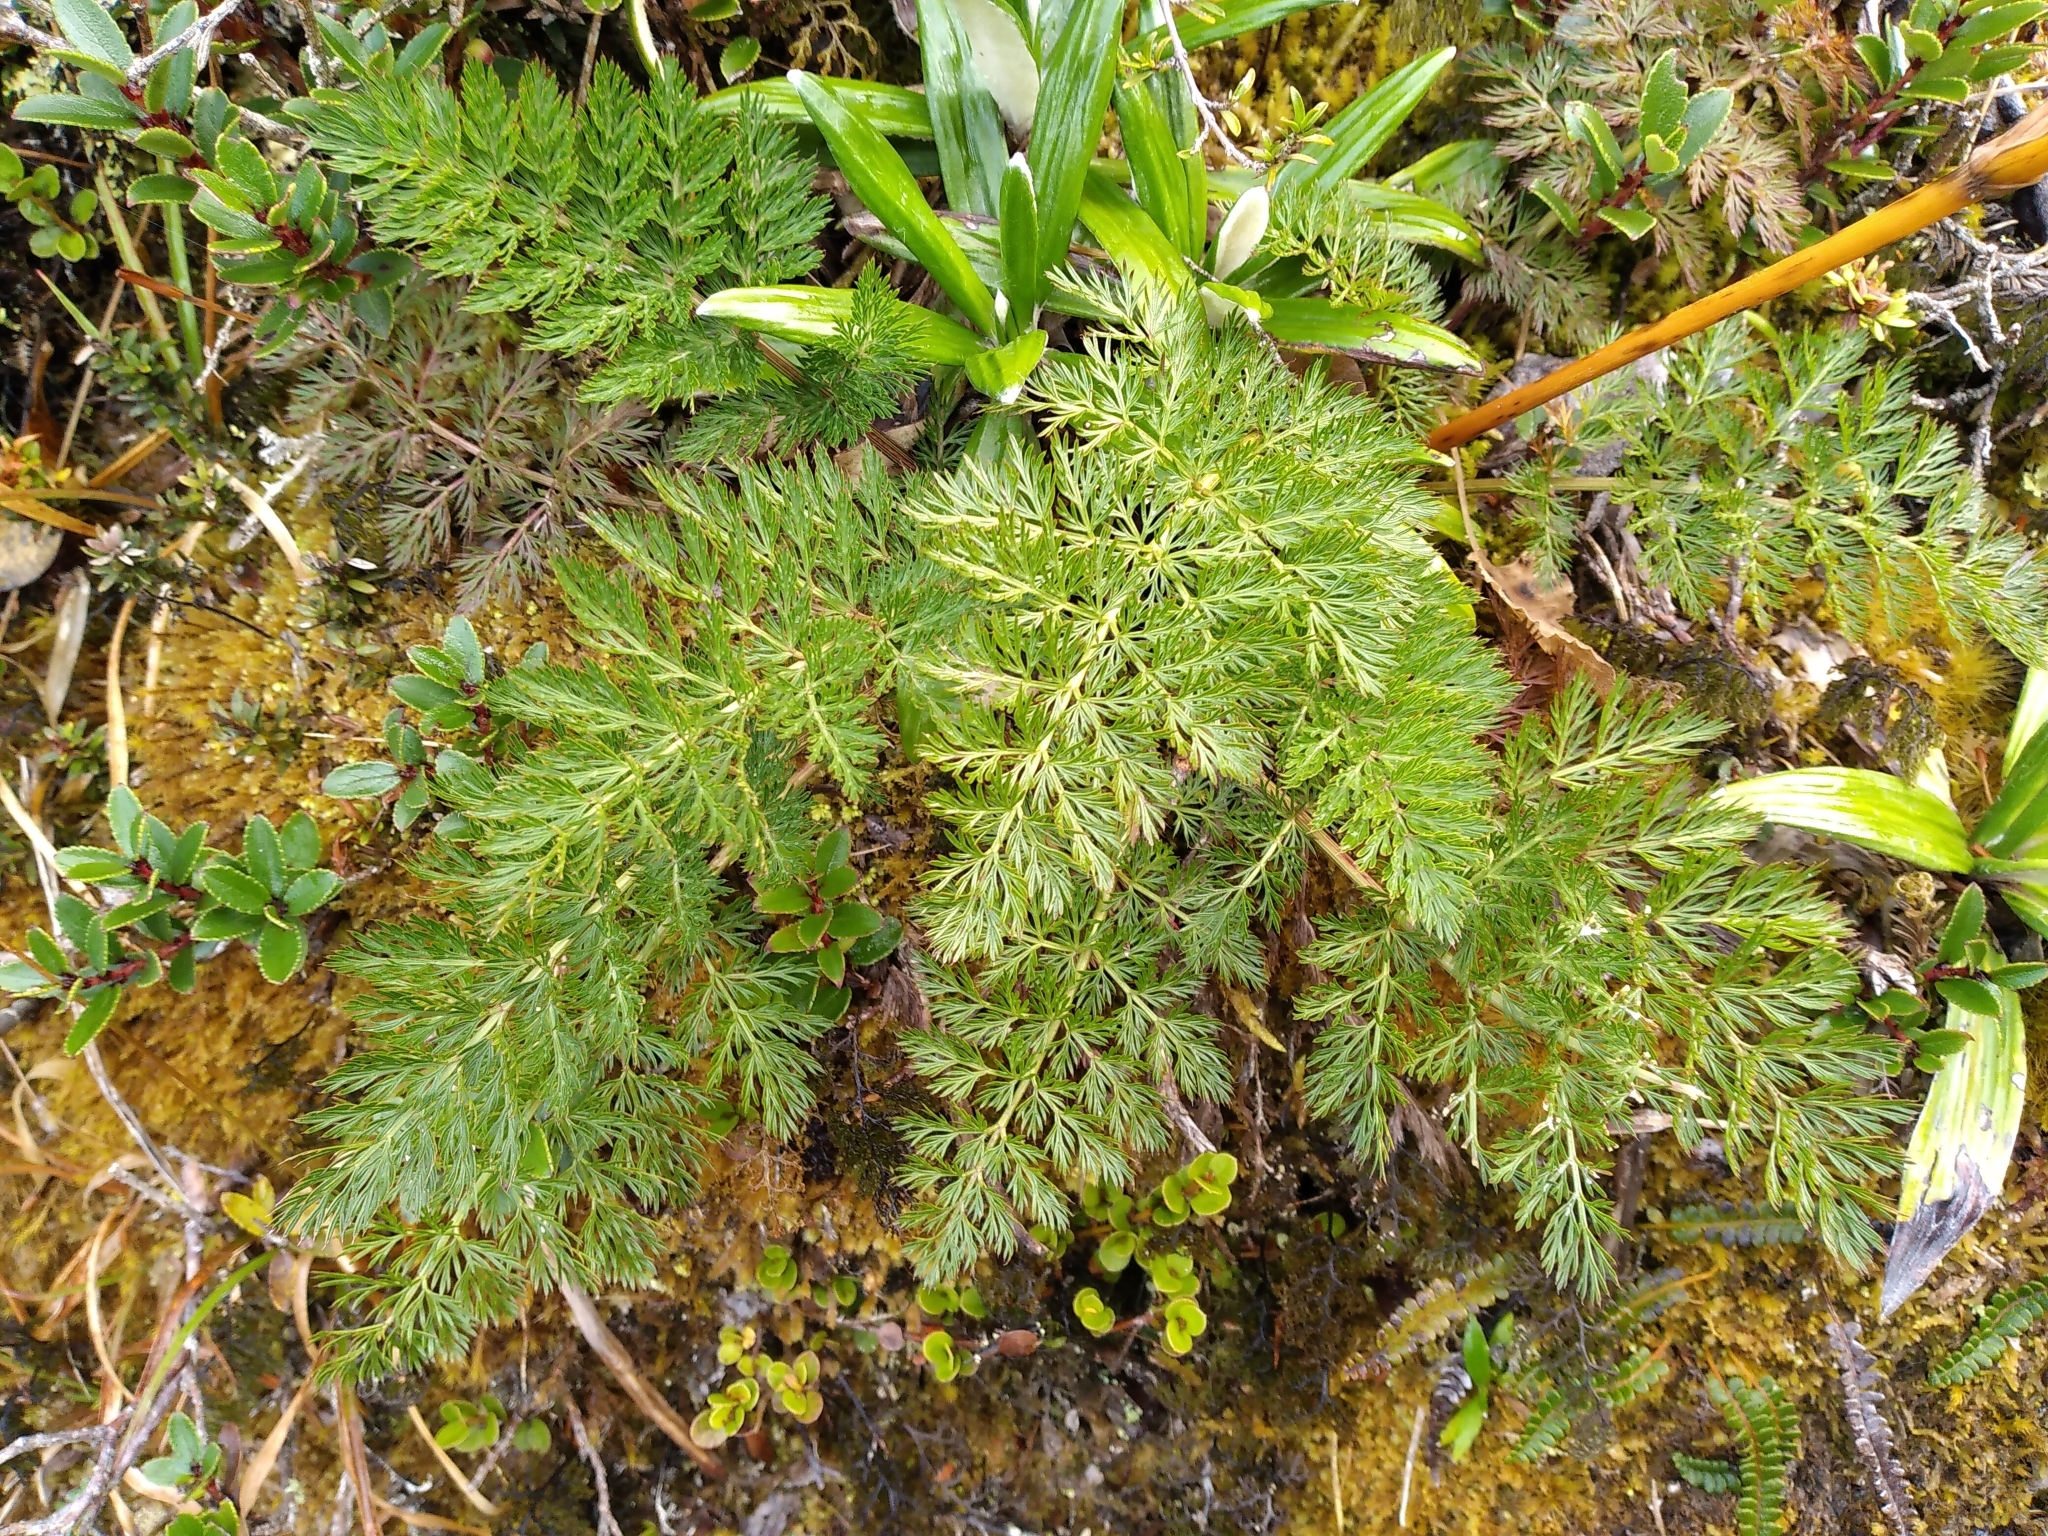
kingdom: Plantae
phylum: Tracheophyta
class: Magnoliopsida
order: Apiales
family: Apiaceae
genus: Anisotome
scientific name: Anisotome haastii
